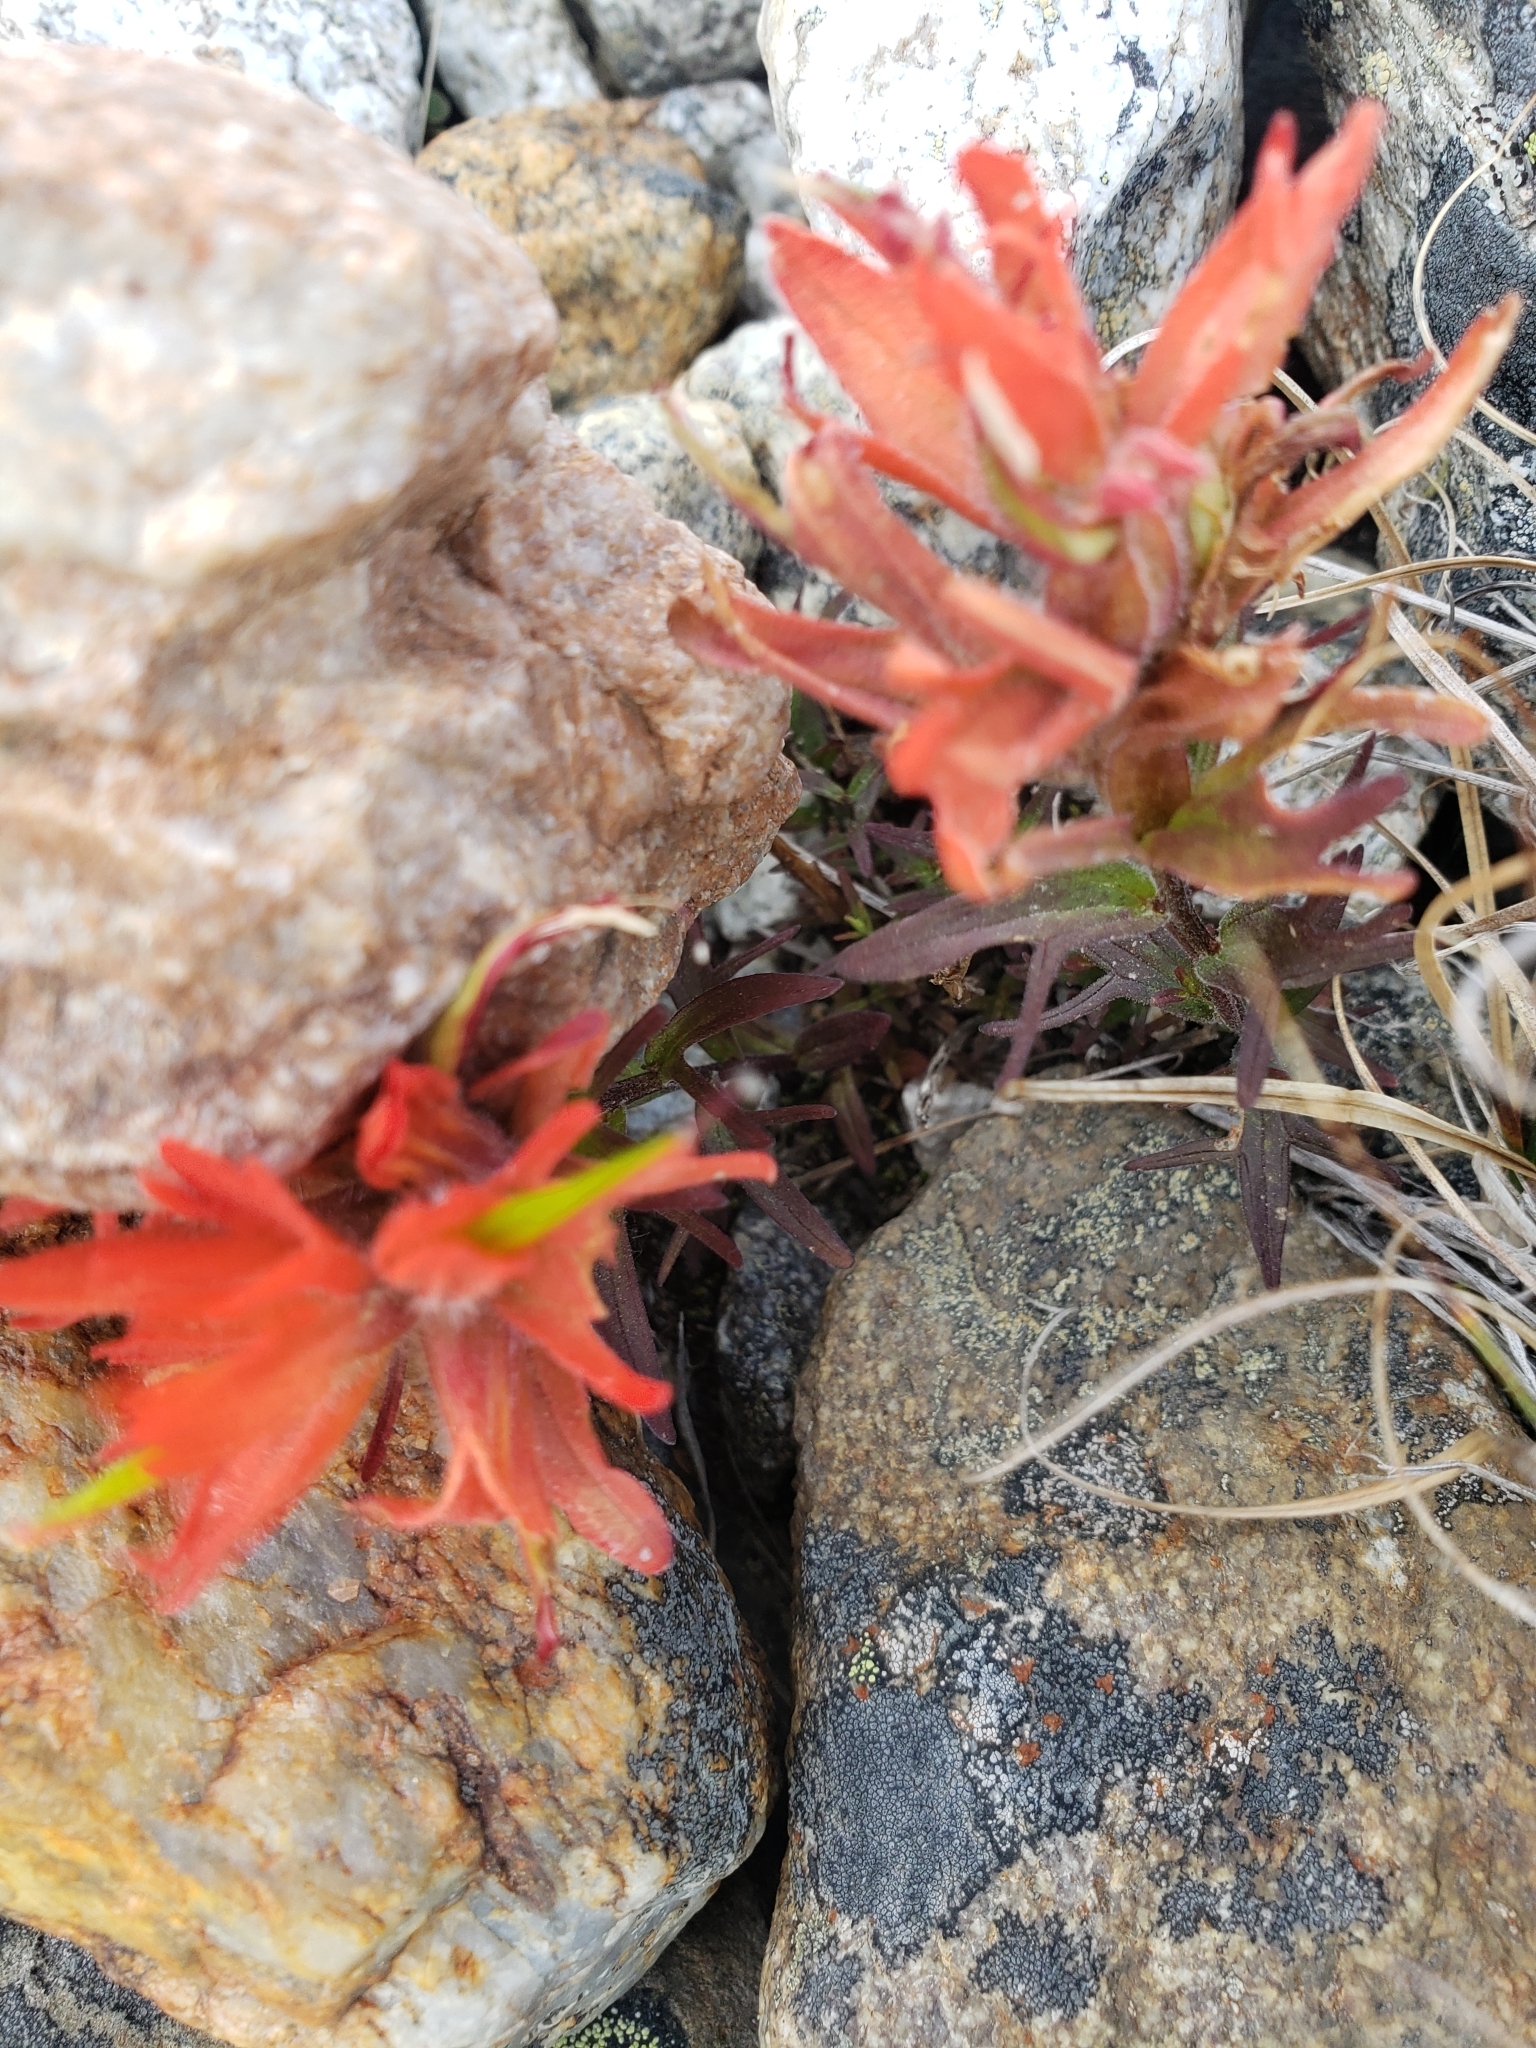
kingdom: Plantae
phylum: Tracheophyta
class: Magnoliopsida
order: Lamiales
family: Orobanchaceae
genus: Castilleja
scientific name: Castilleja rupicola
